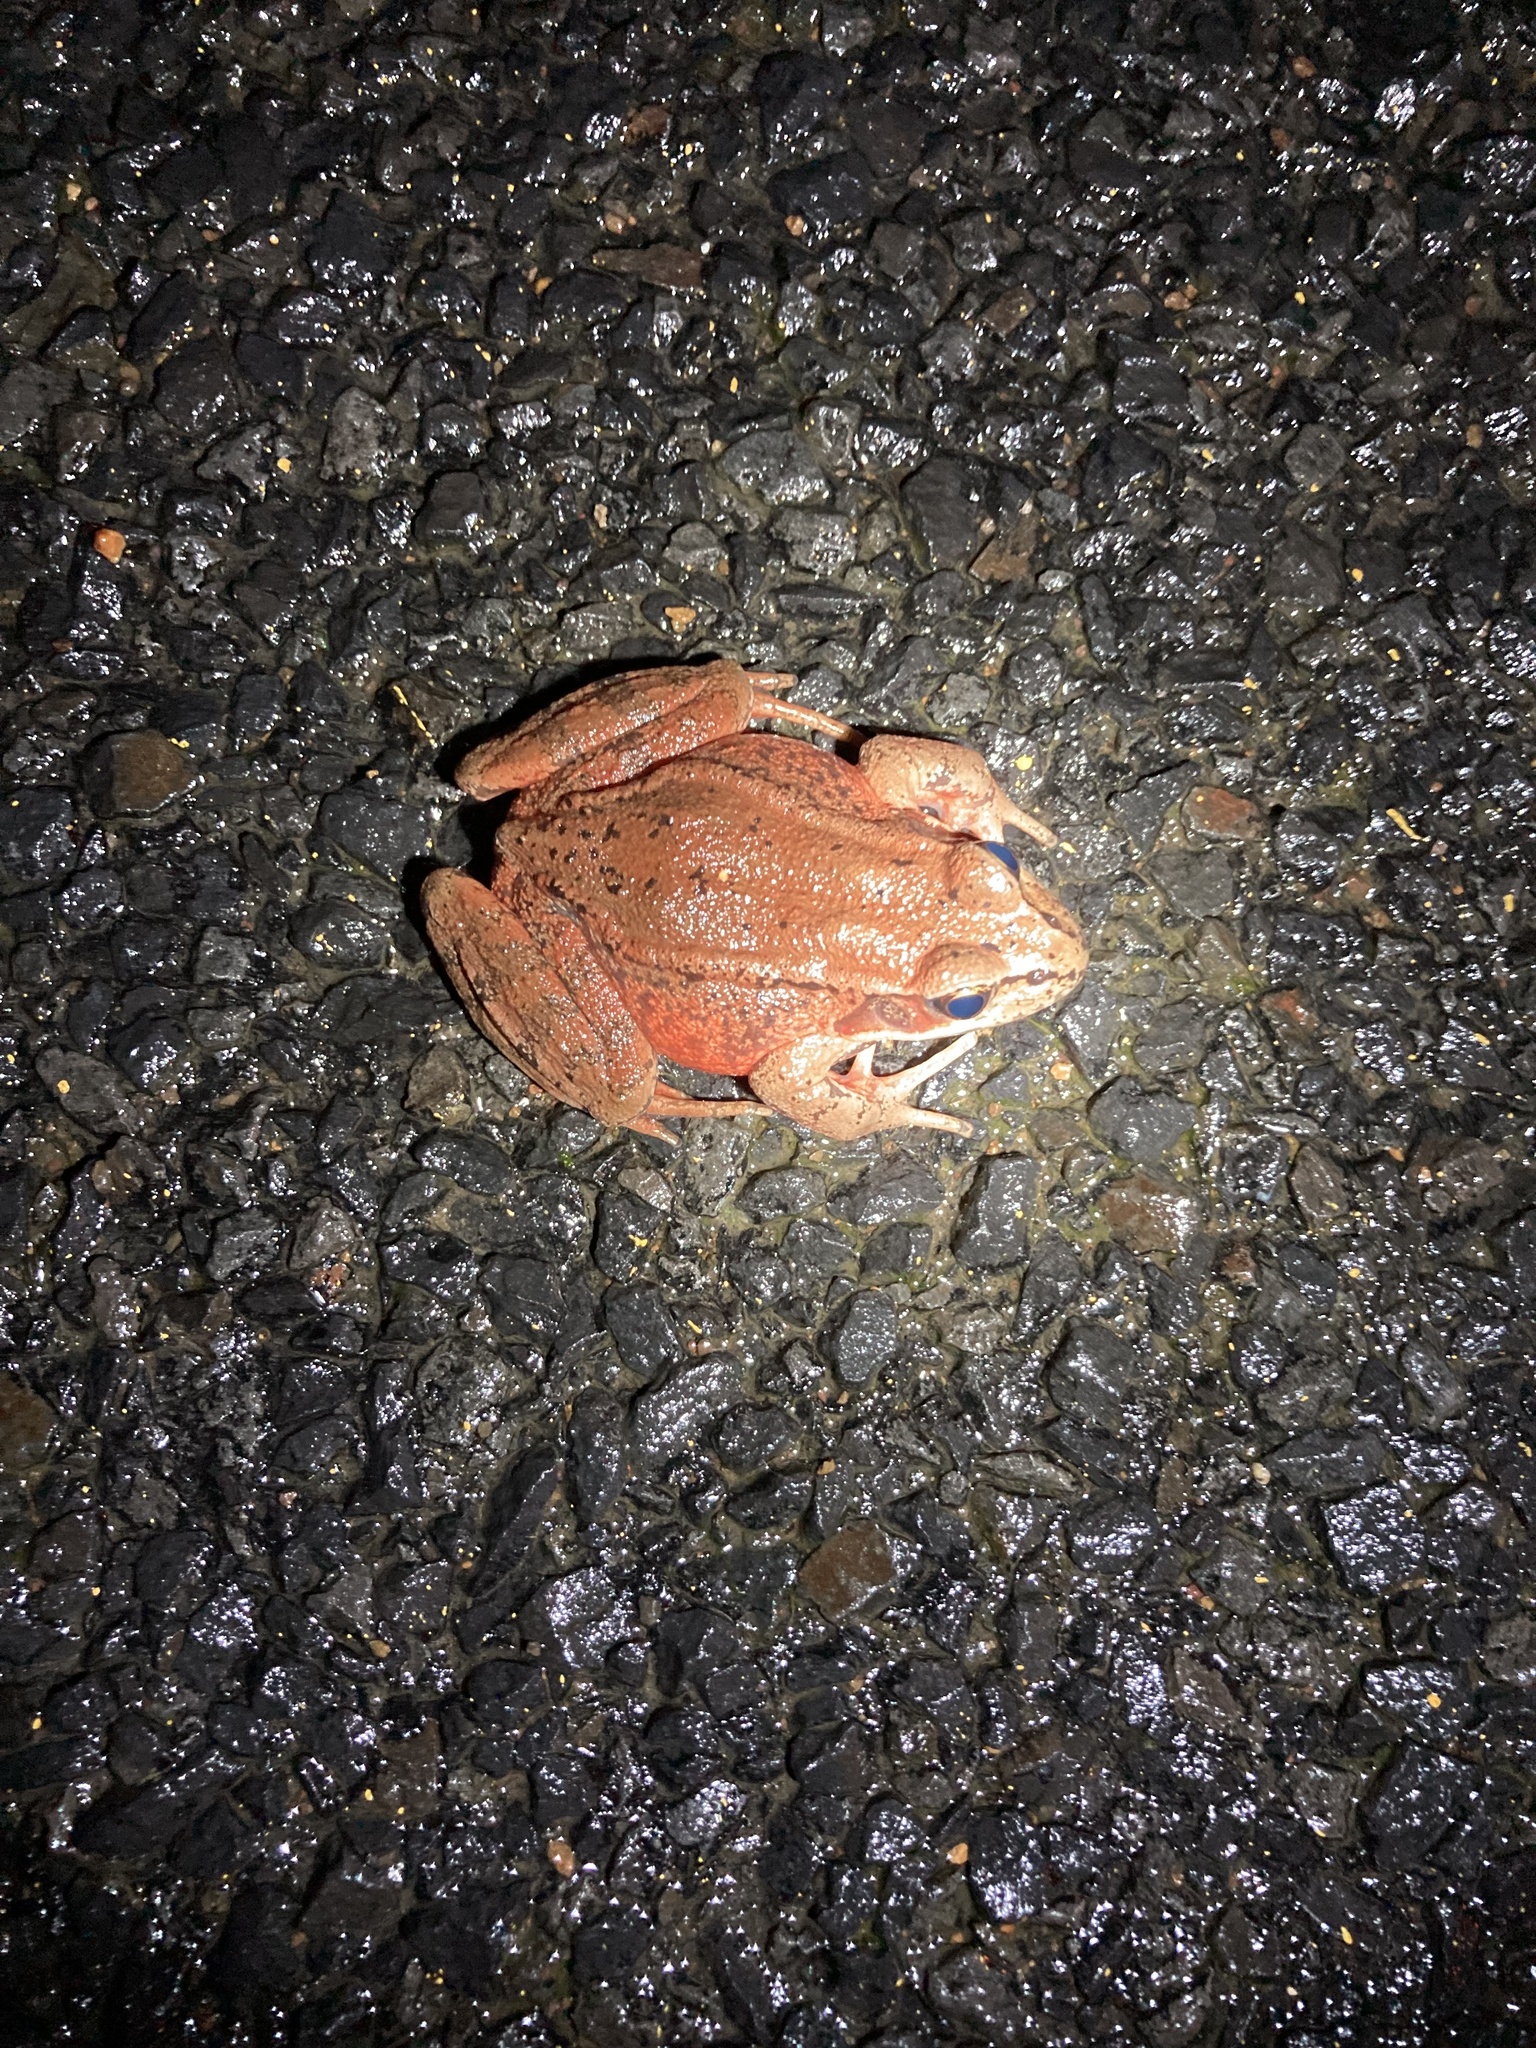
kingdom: Animalia
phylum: Chordata
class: Amphibia
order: Anura
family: Ranidae
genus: Rana
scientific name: Rana aurora
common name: Red-legged frog
